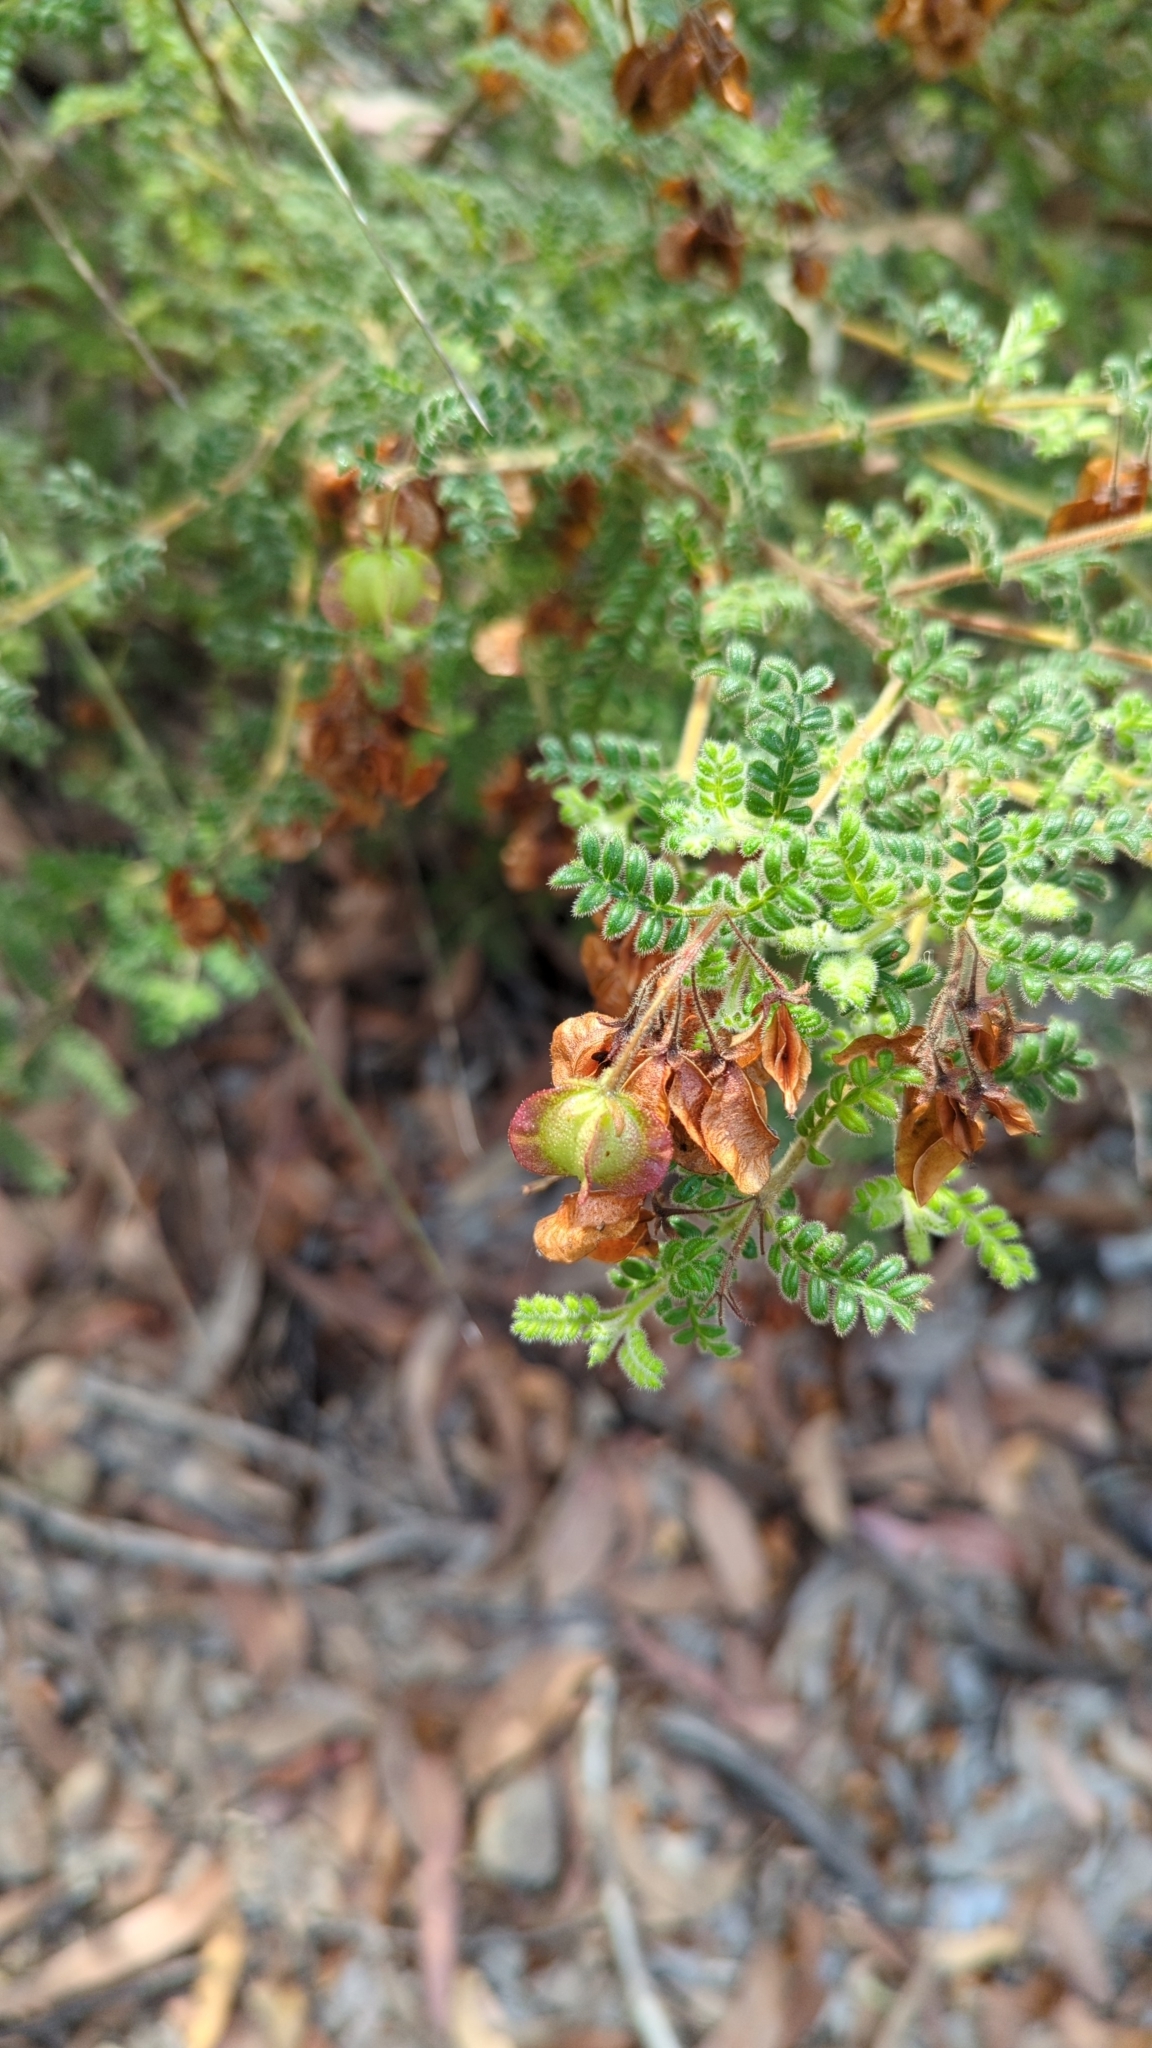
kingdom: Plantae
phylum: Tracheophyta
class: Magnoliopsida
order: Sapindales
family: Sapindaceae
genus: Dodonaea
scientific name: Dodonaea pinnata
